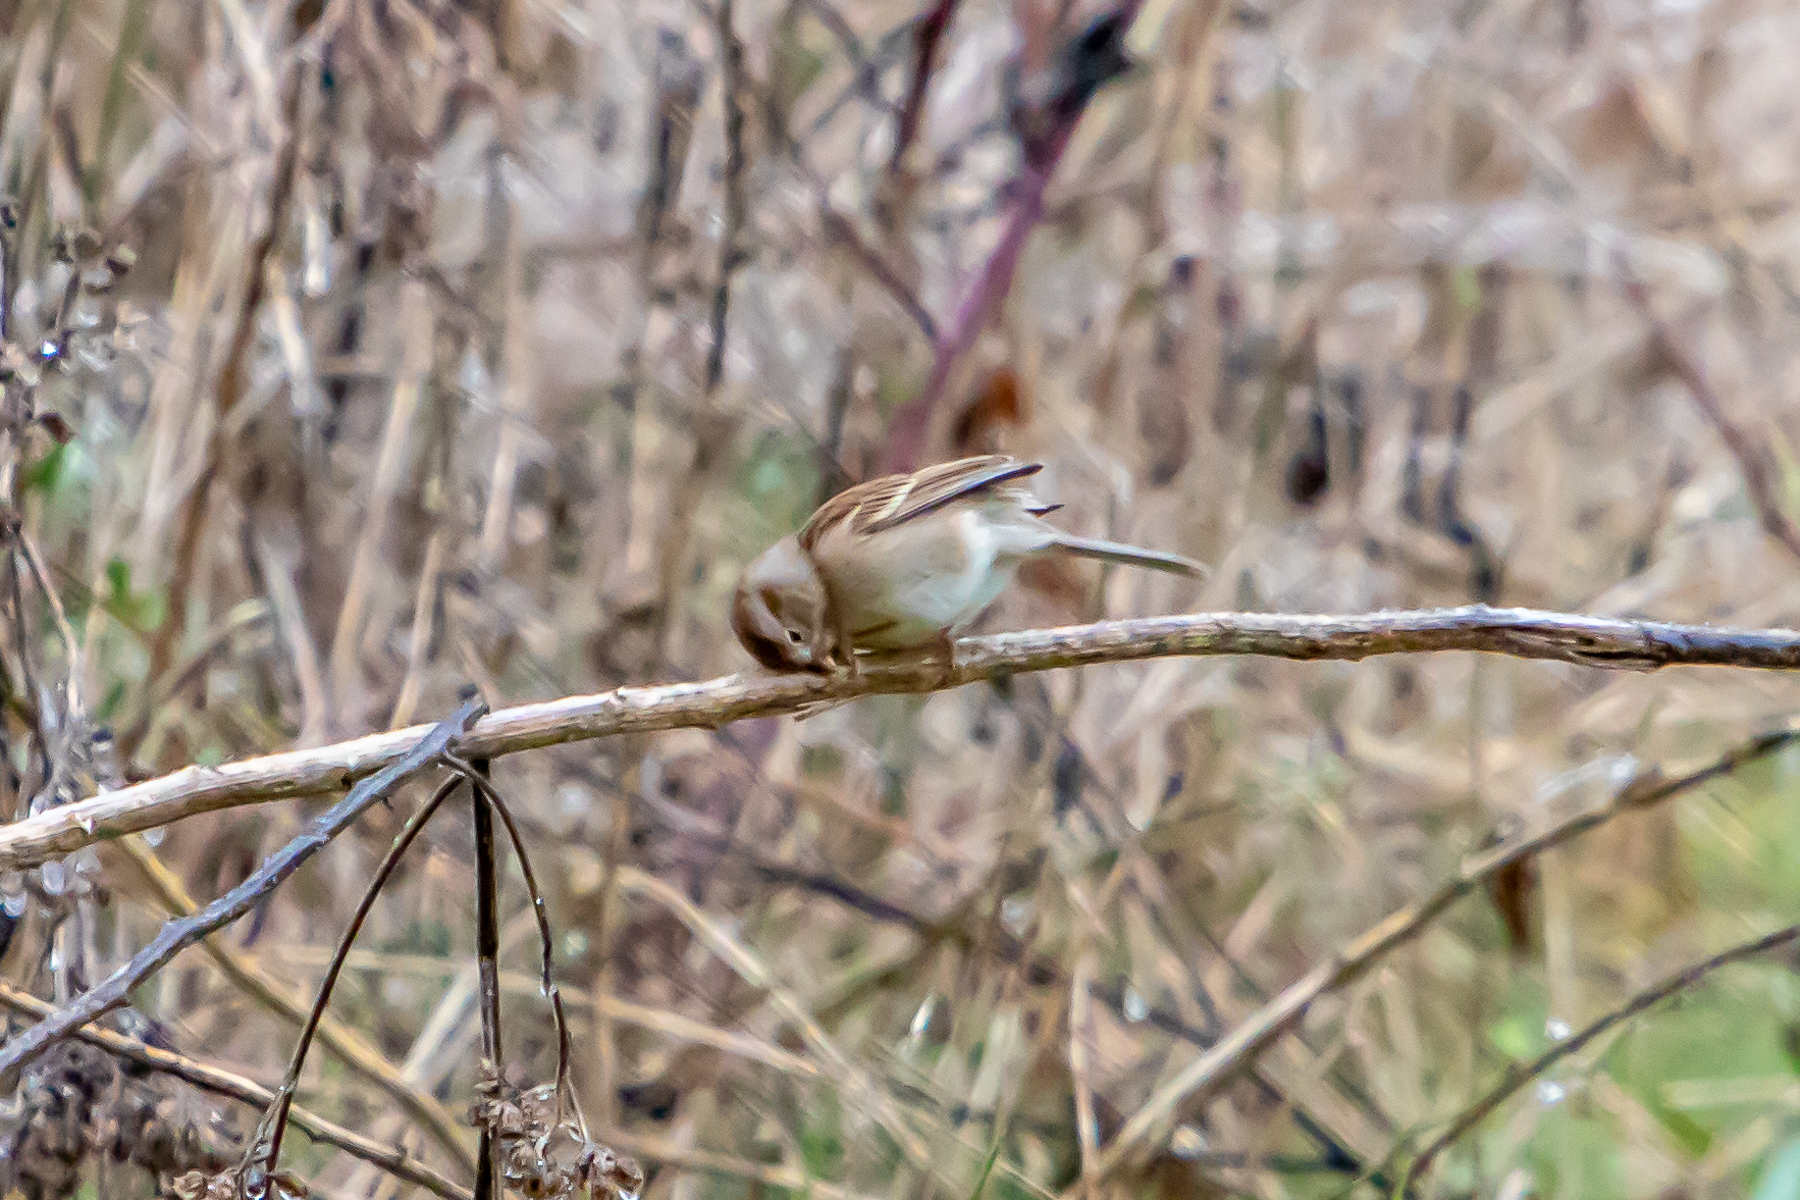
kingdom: Animalia
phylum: Chordata
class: Aves
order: Passeriformes
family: Passerellidae
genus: Spizella
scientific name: Spizella pusilla
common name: Field sparrow
